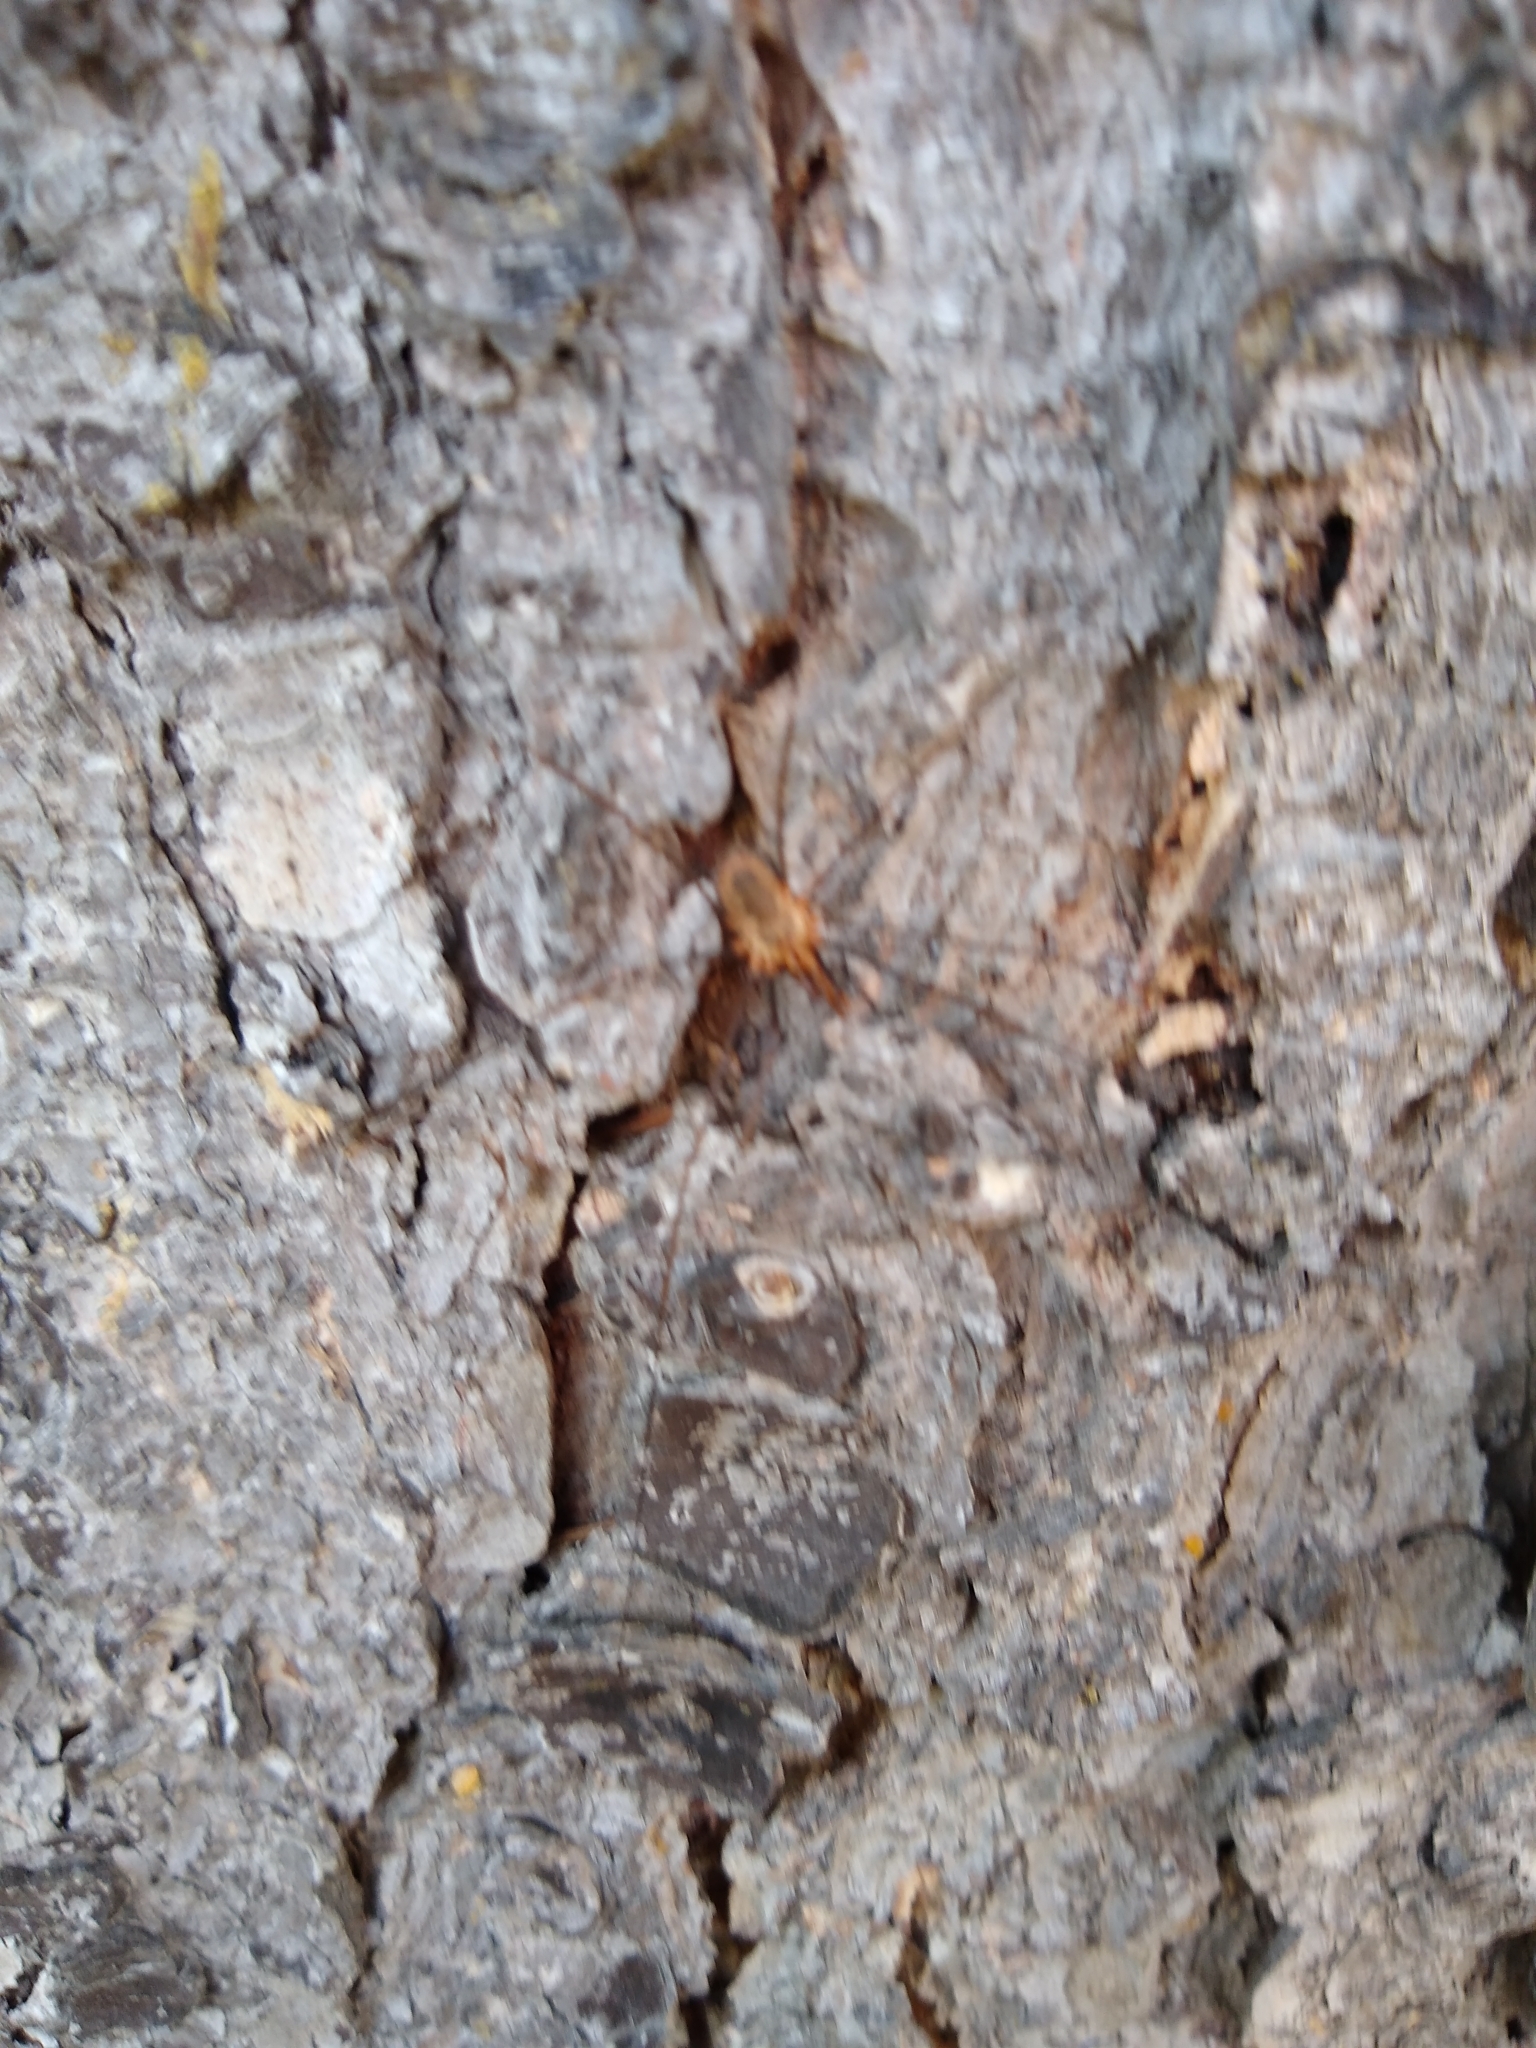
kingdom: Animalia
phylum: Arthropoda
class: Arachnida
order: Opiliones
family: Phalangiidae
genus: Phalangium
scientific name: Phalangium opilio
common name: Daddy longleg
